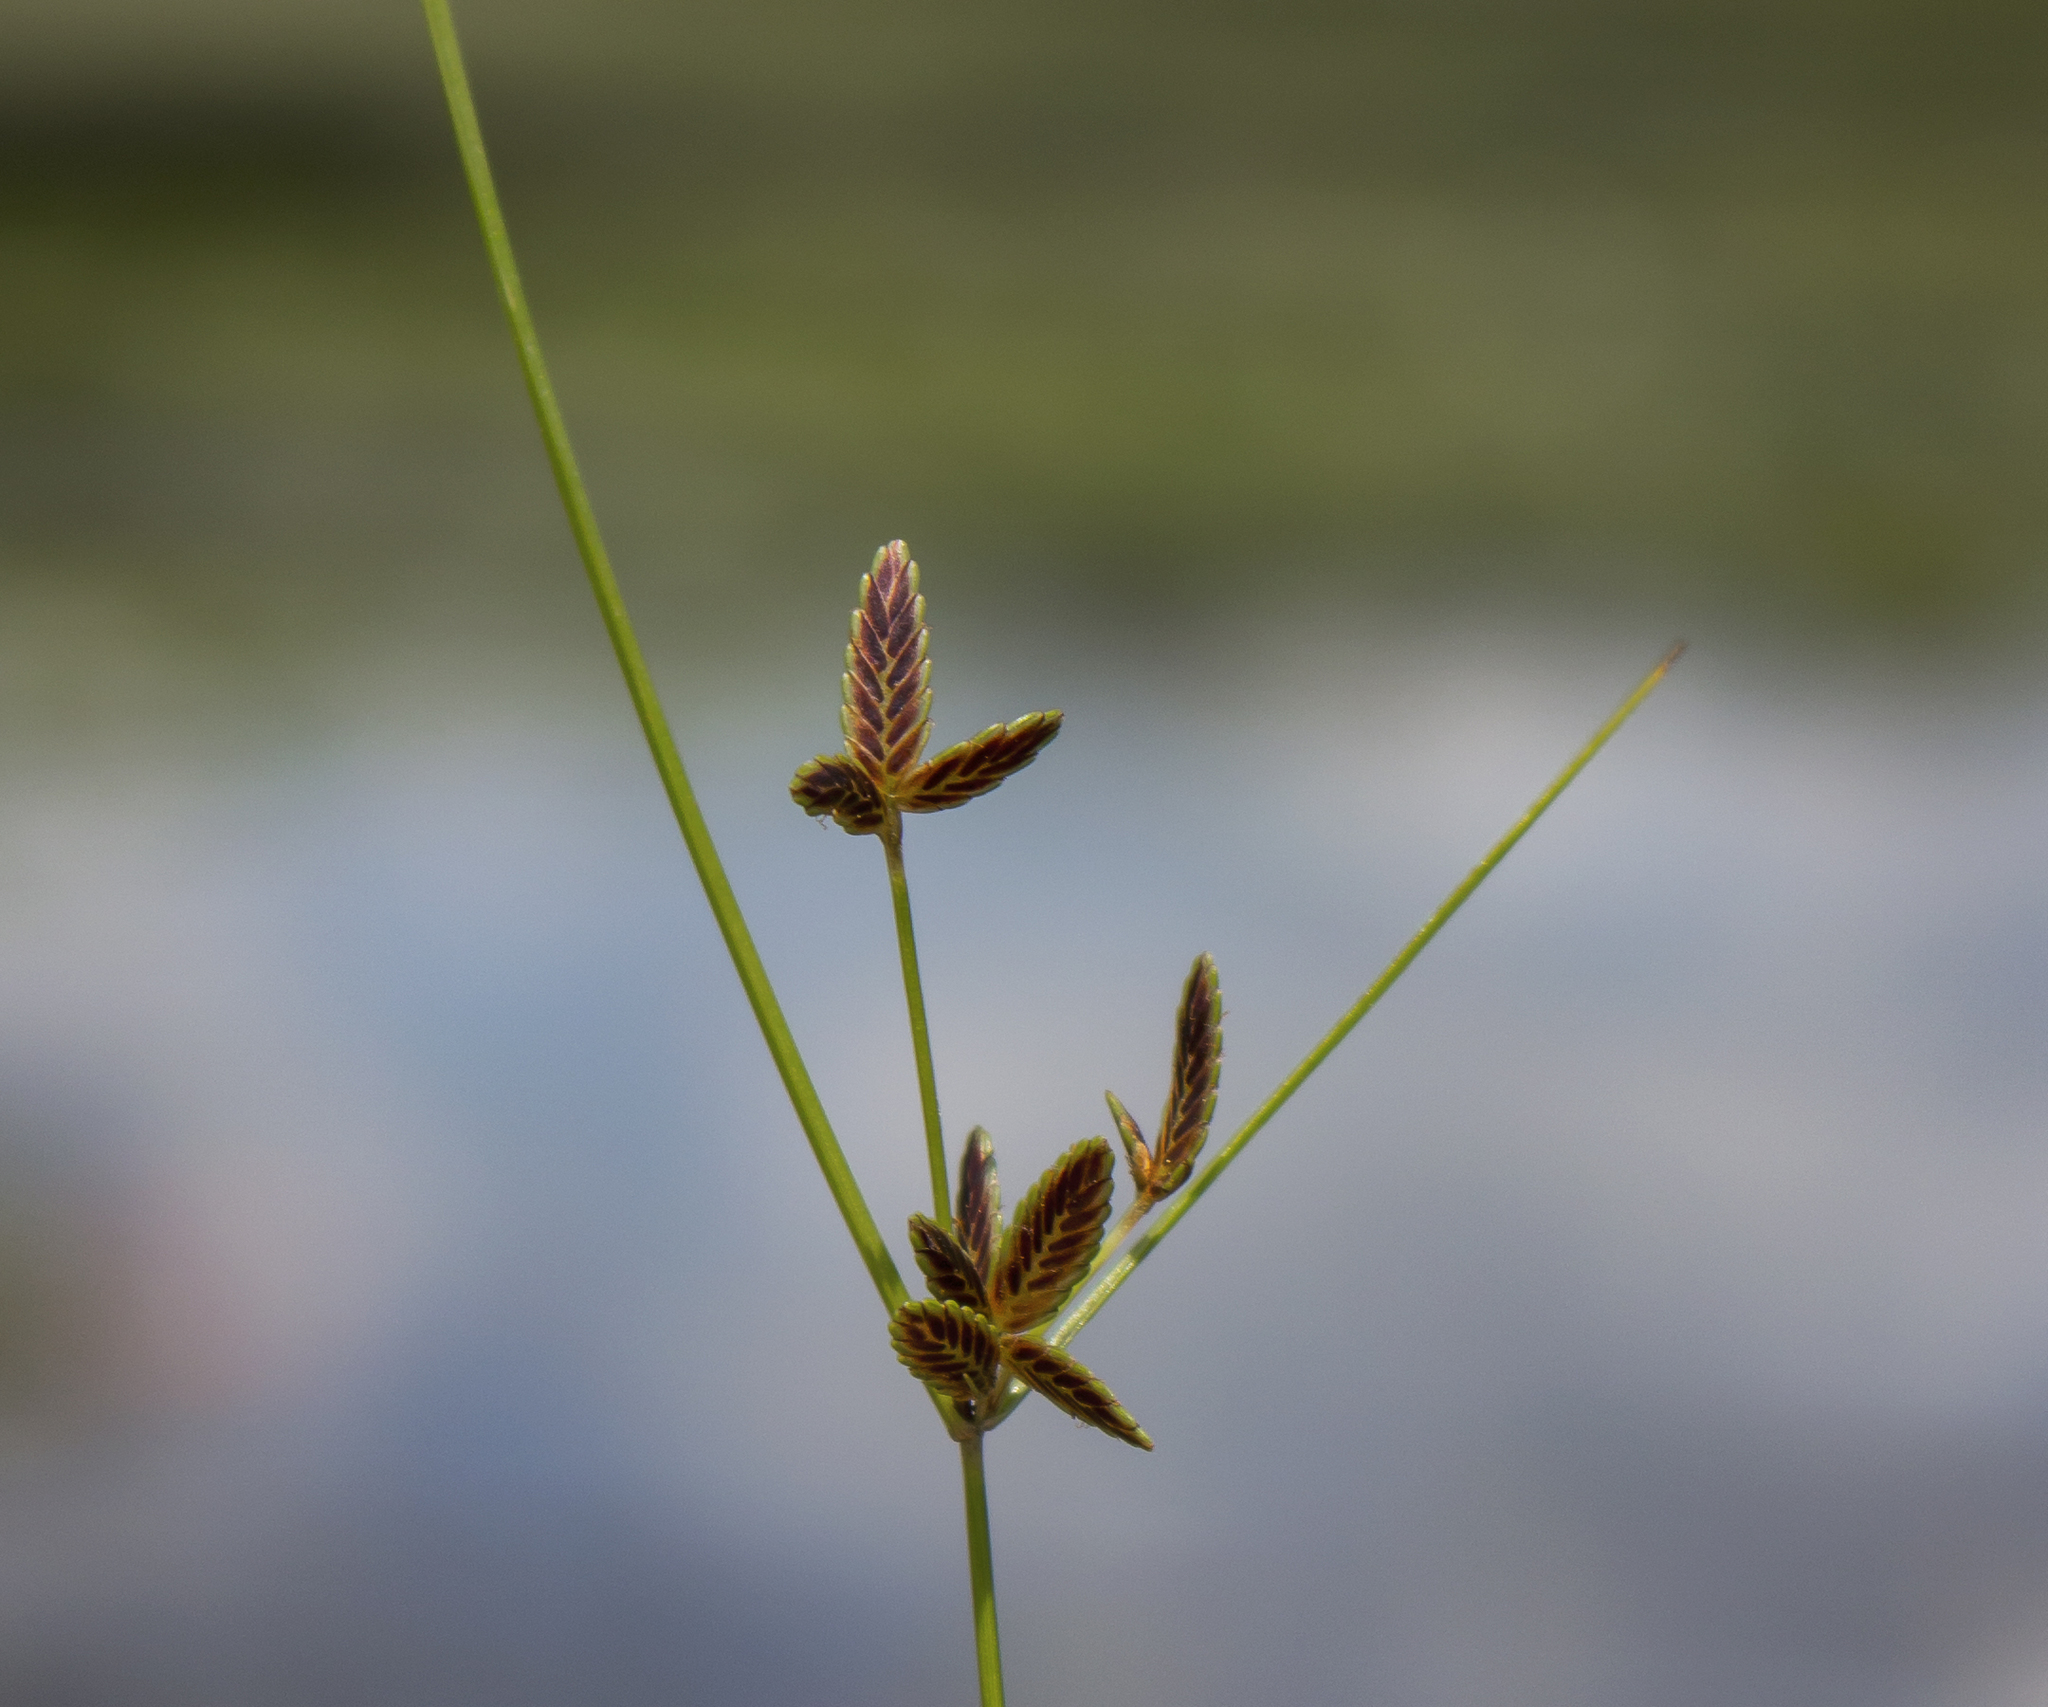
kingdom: Plantae
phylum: Tracheophyta
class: Liliopsida
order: Poales
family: Cyperaceae
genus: Cyperus
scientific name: Cyperus bipartitus
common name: Brook flatsedge
